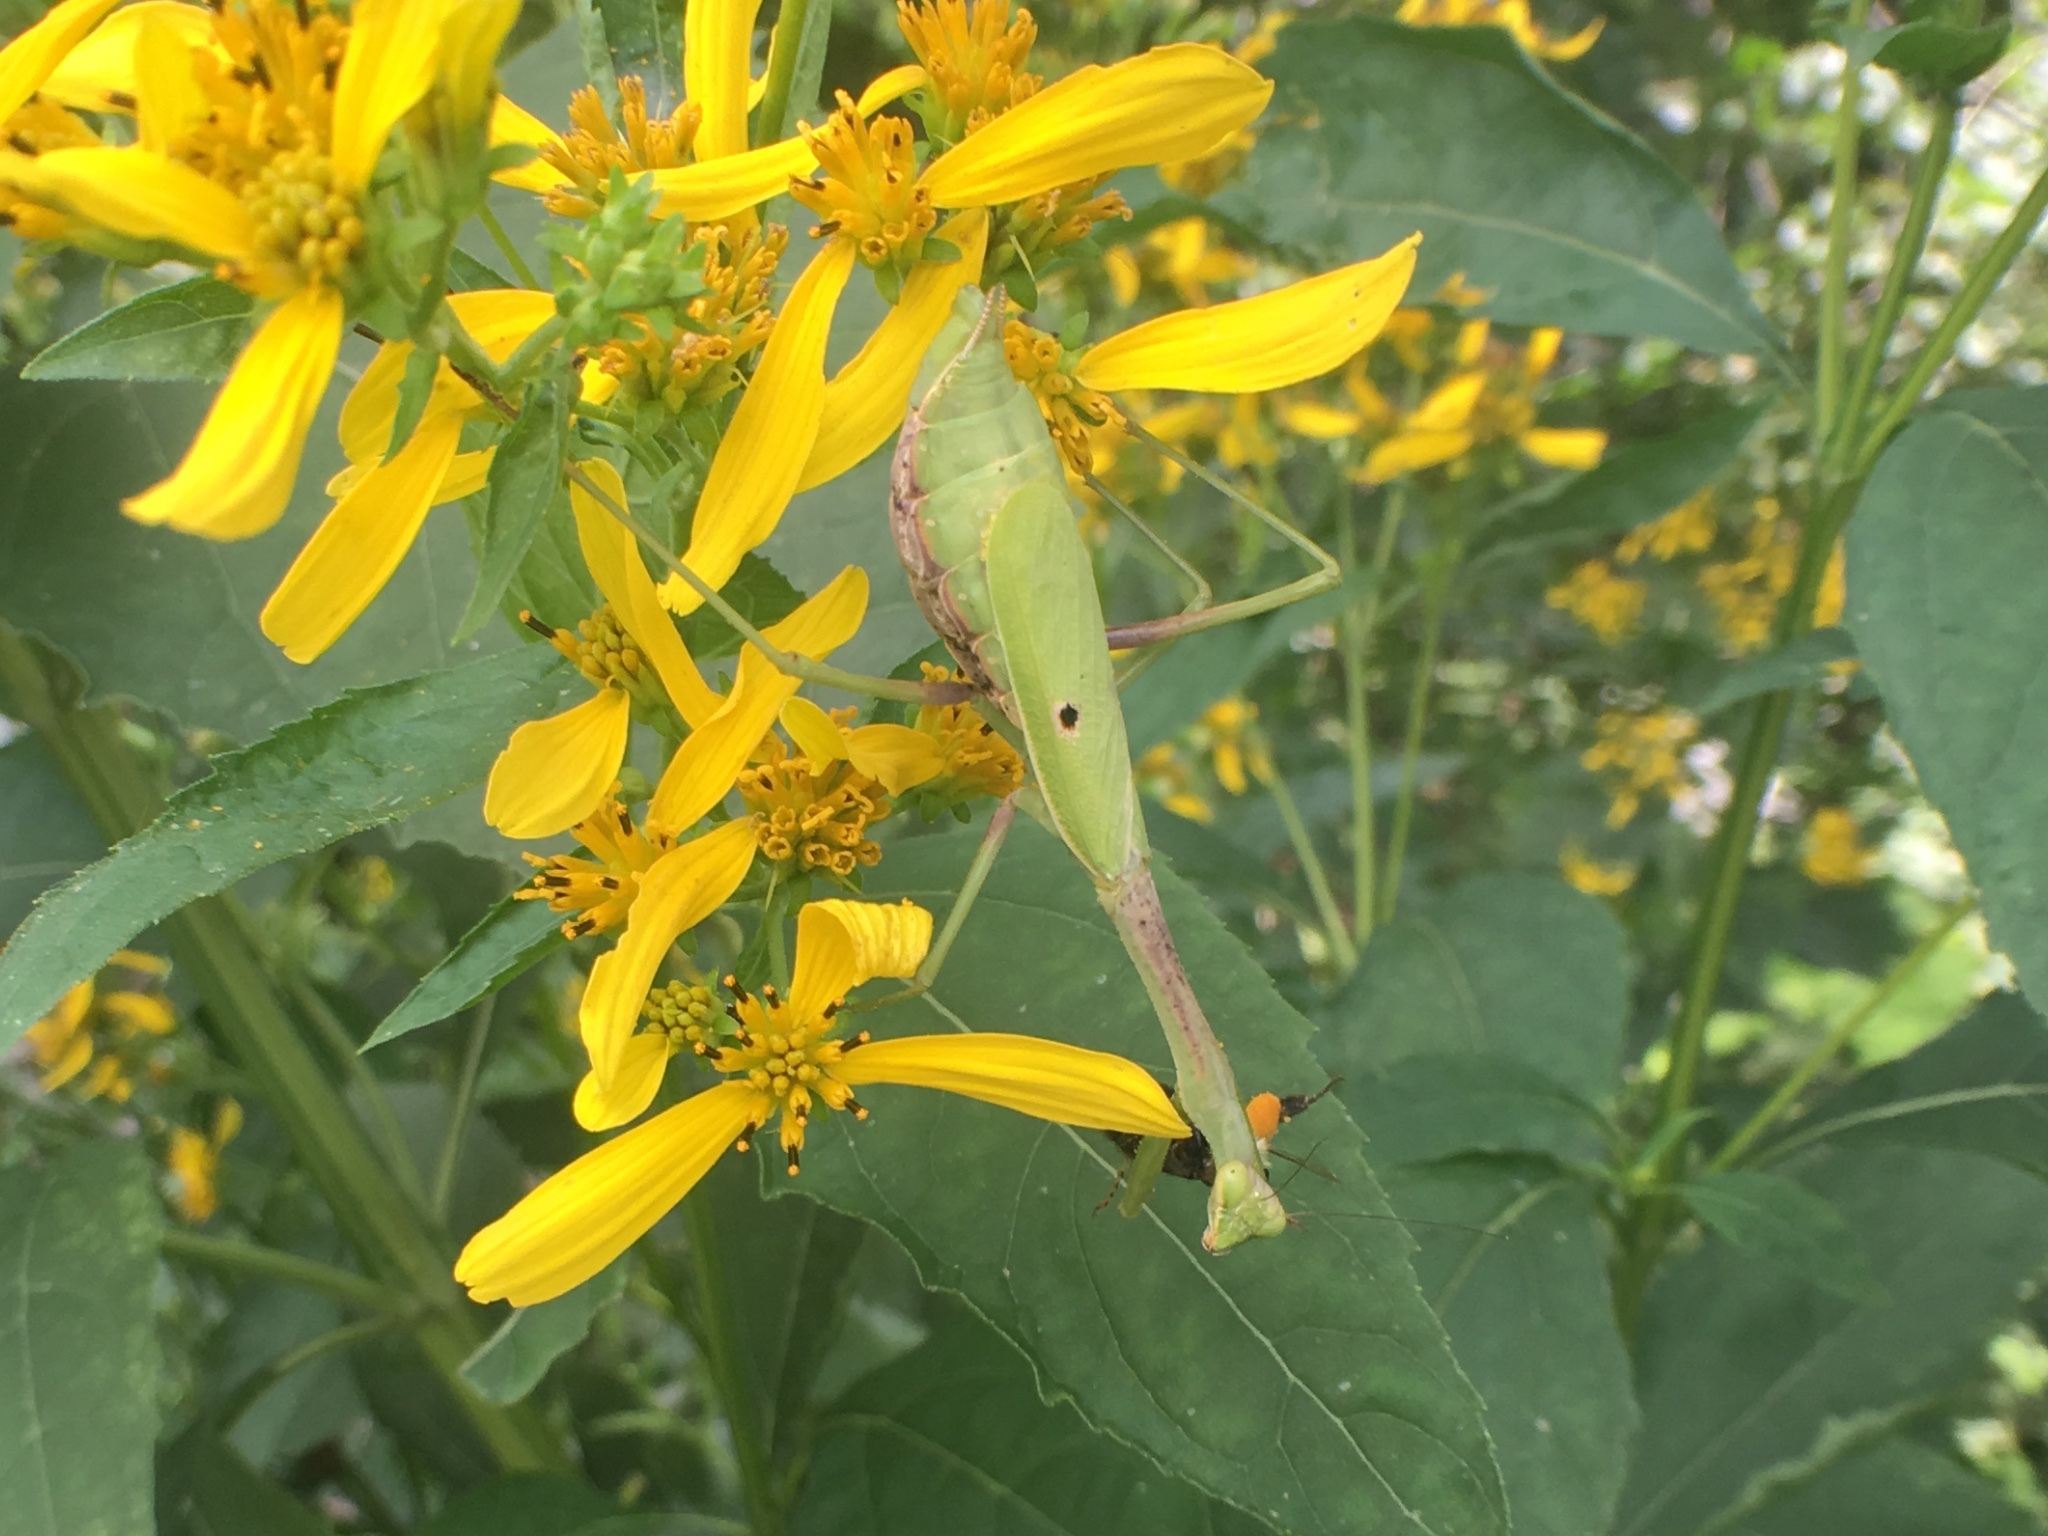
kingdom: Animalia
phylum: Arthropoda
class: Insecta
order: Mantodea
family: Mantidae
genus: Stagmomantis
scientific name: Stagmomantis carolina
